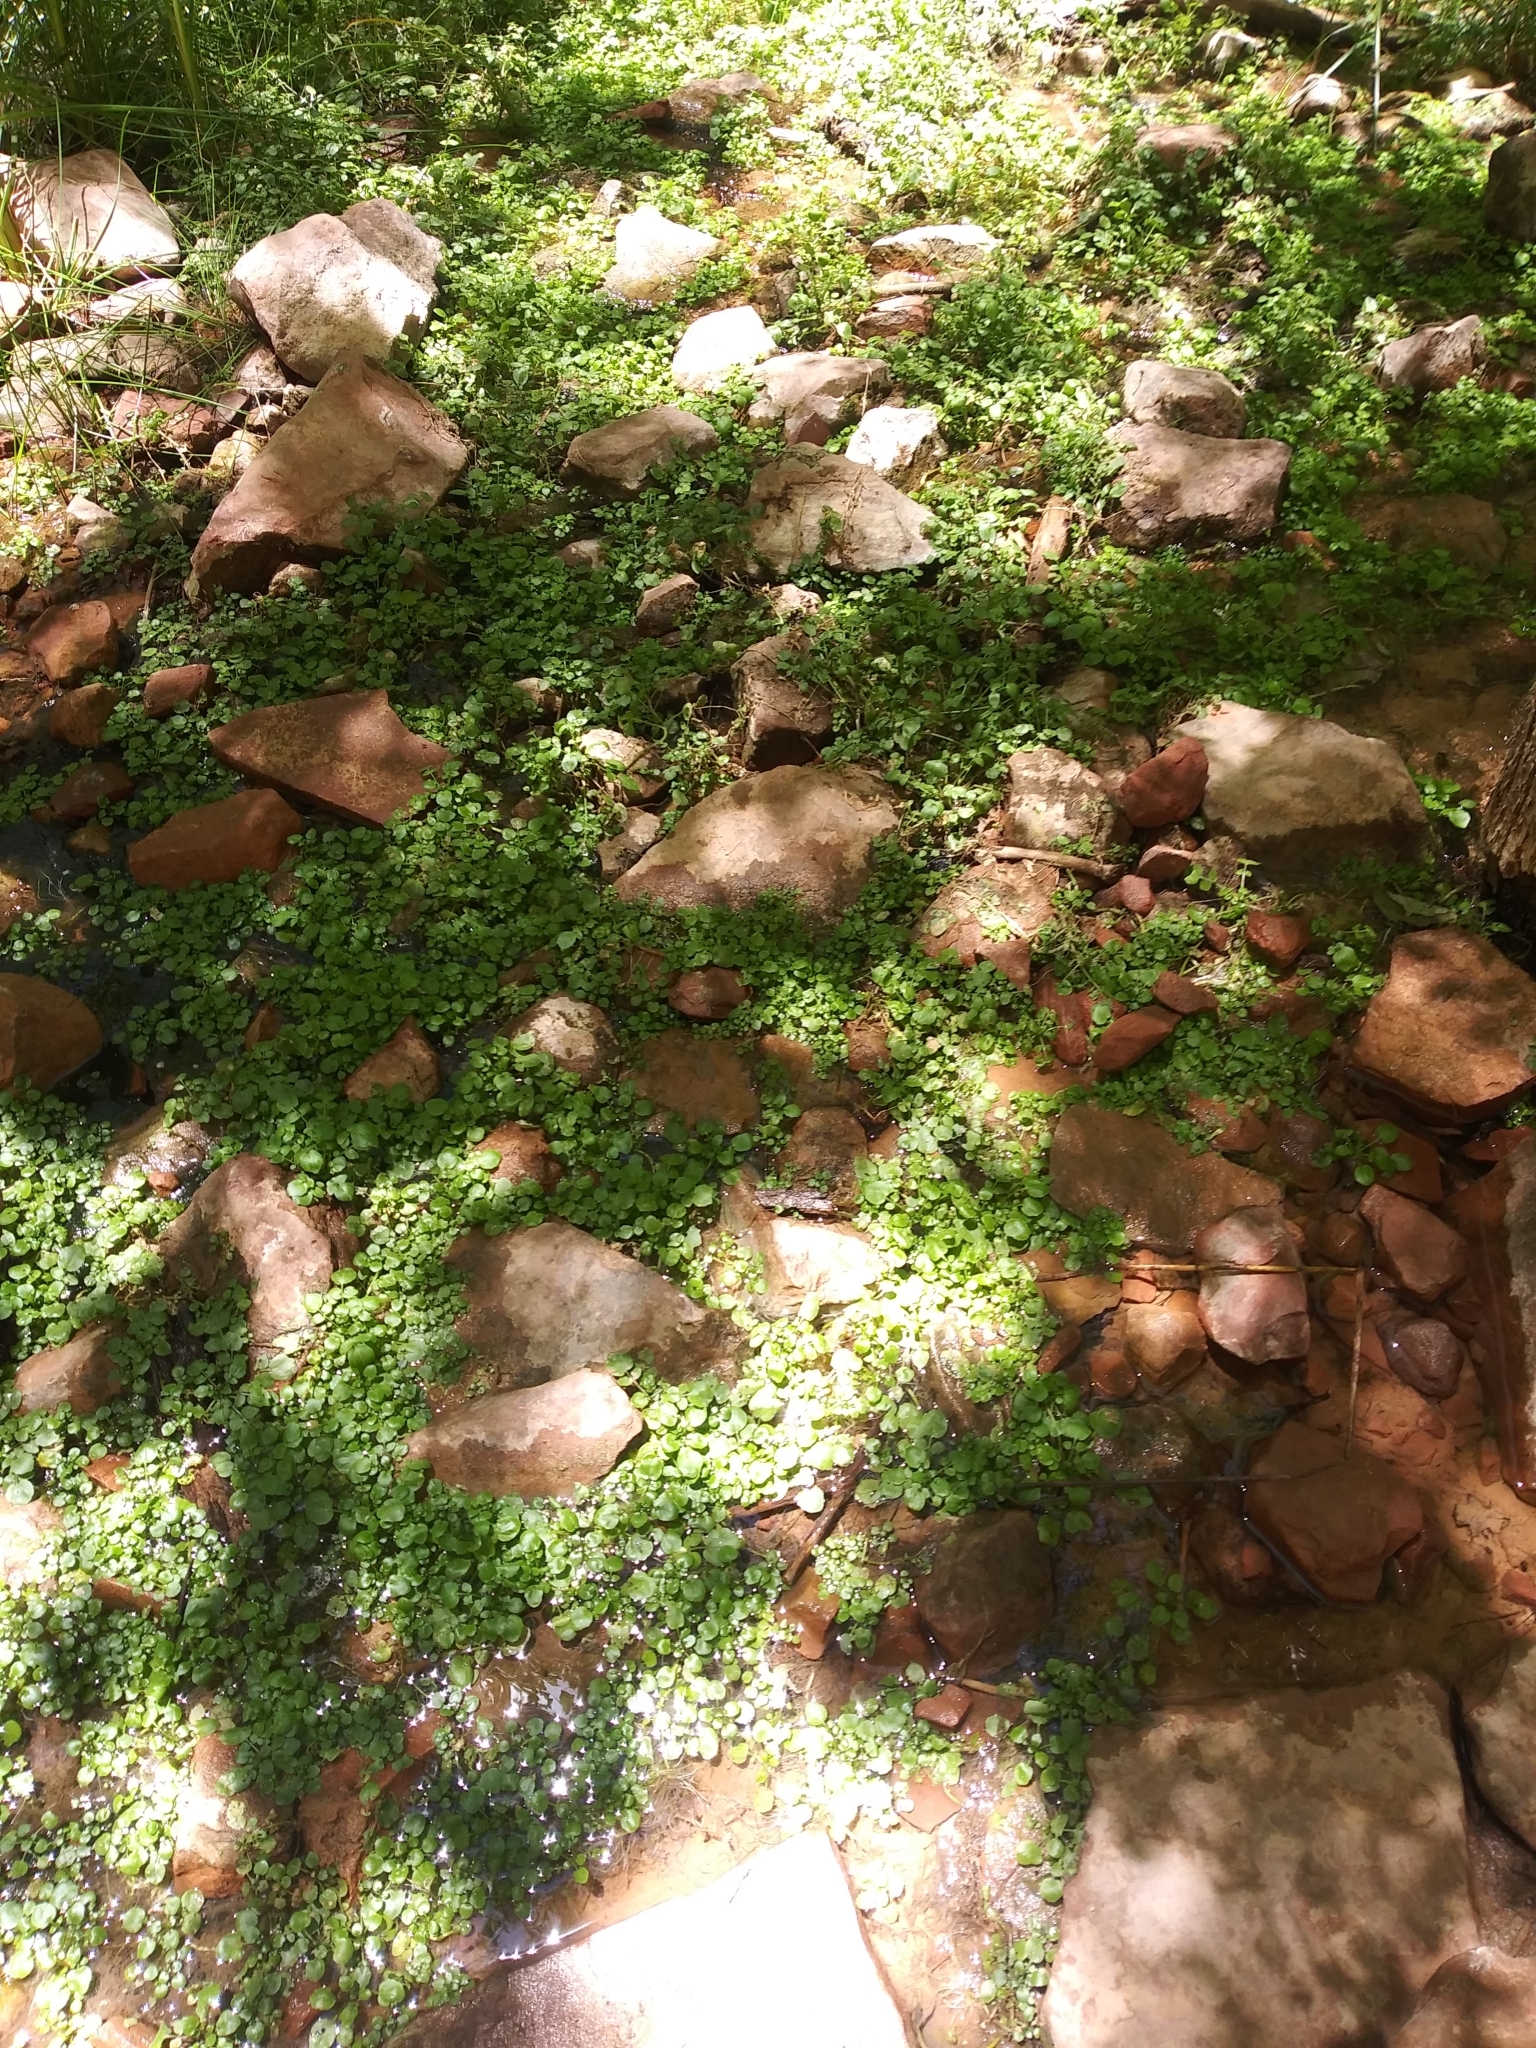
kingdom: Plantae
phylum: Tracheophyta
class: Magnoliopsida
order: Brassicales
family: Brassicaceae
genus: Nasturtium
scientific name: Nasturtium officinale
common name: Watercress
